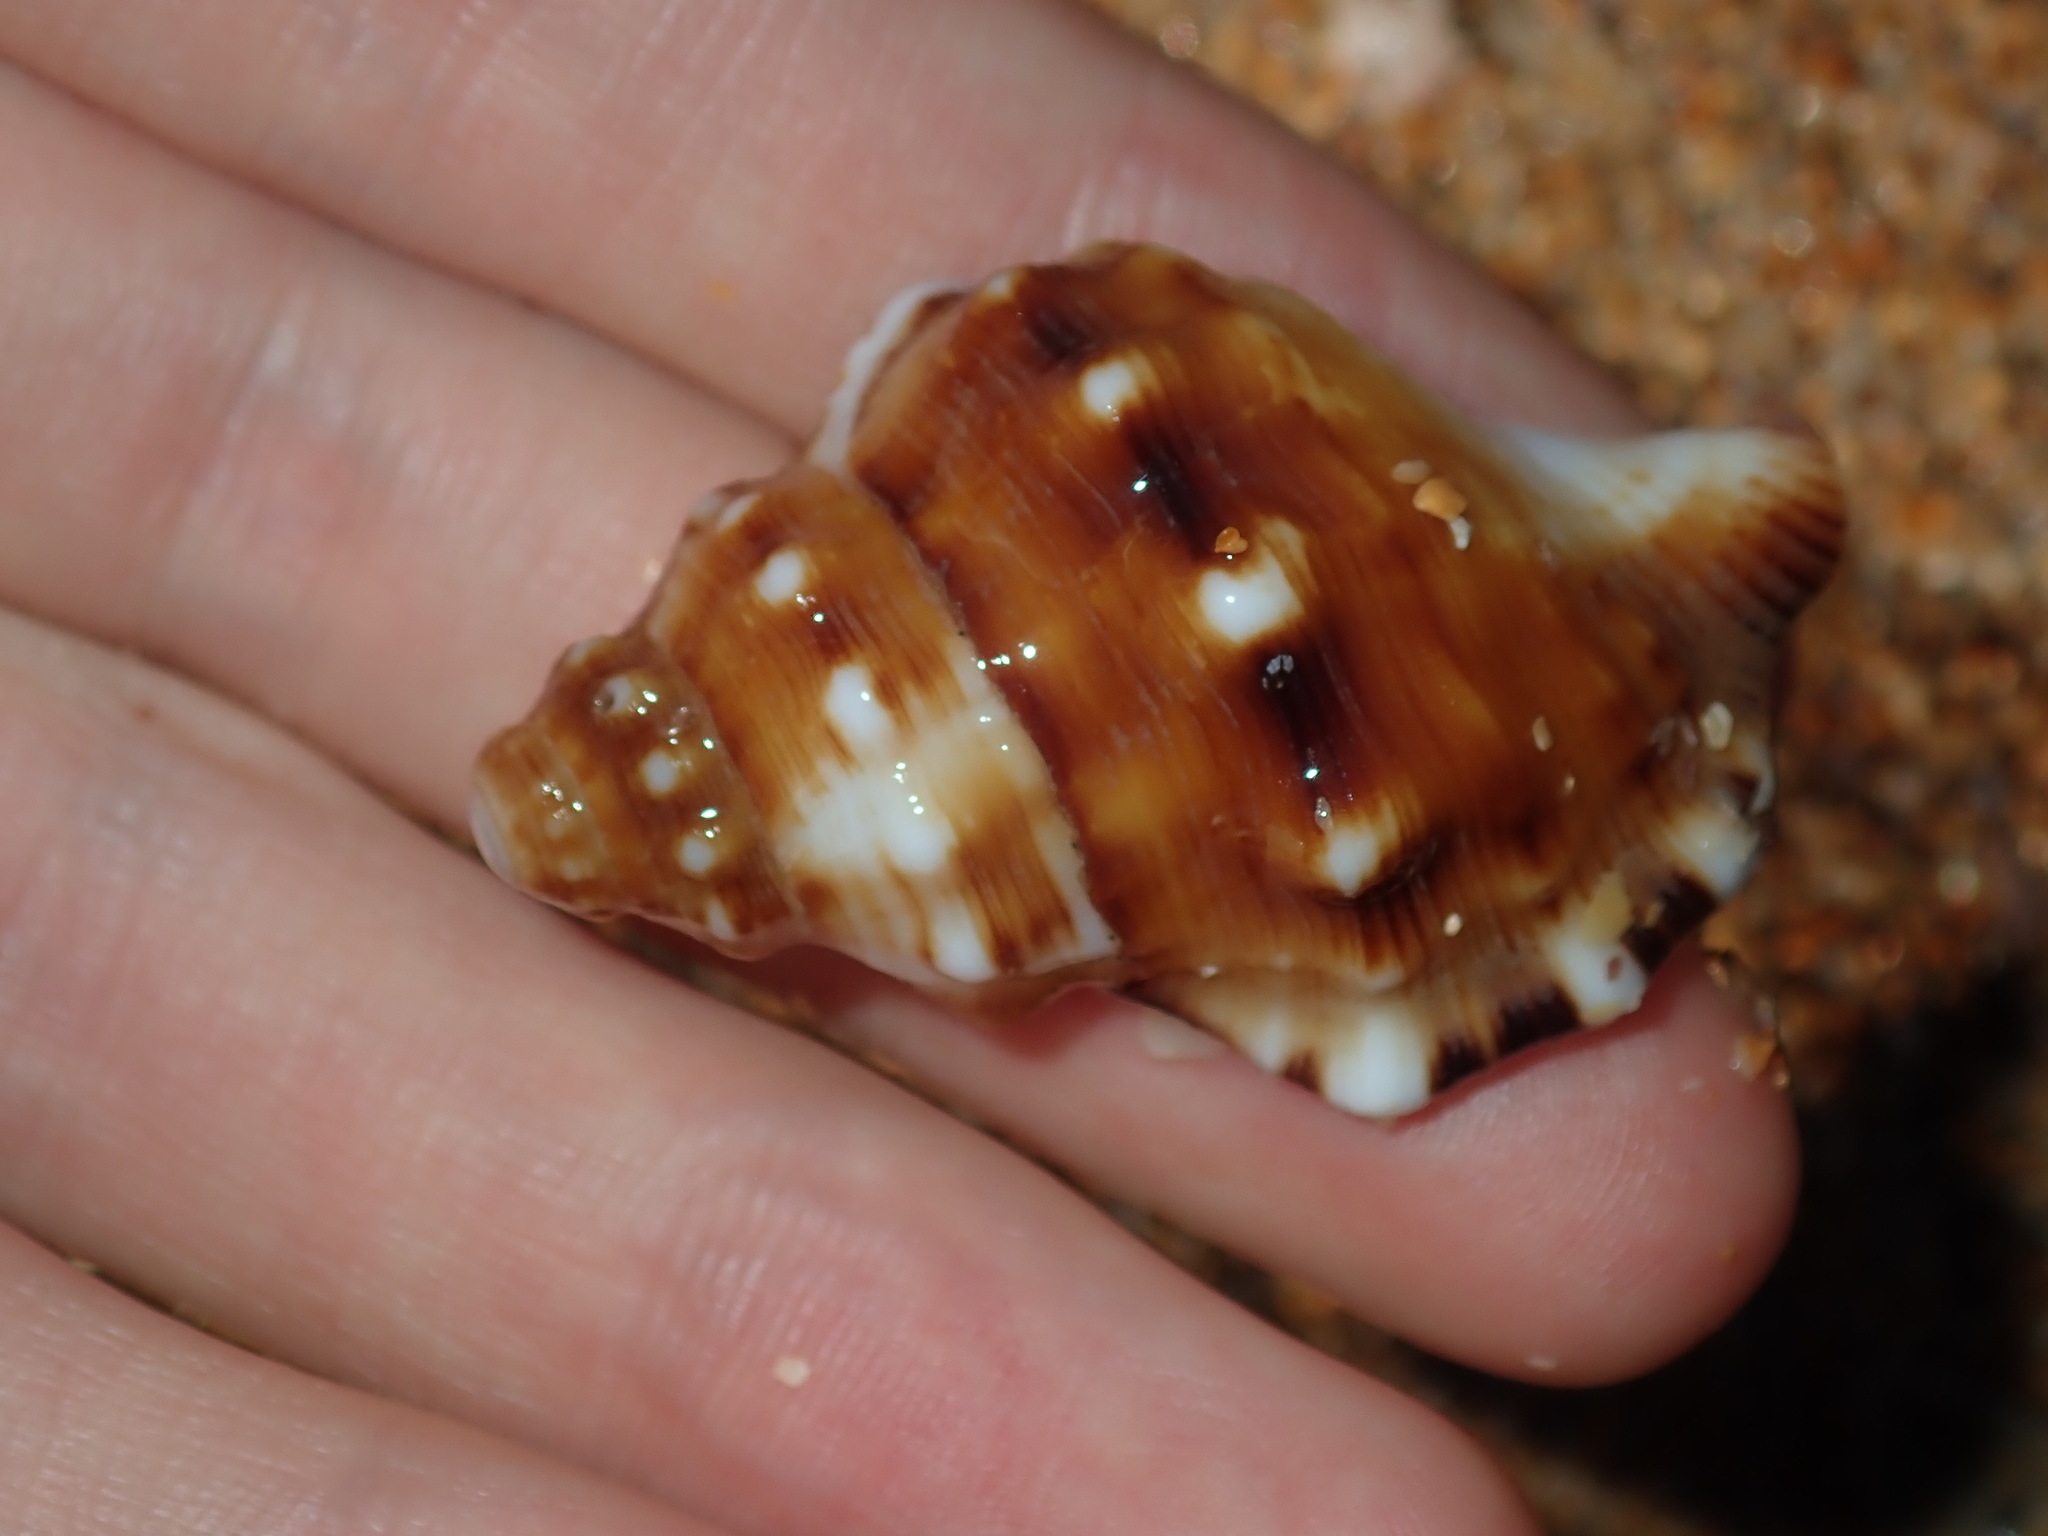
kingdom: Animalia
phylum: Mollusca
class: Gastropoda
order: Littorinimorpha
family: Ranellidae
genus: Ranella
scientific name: Ranella australasia
